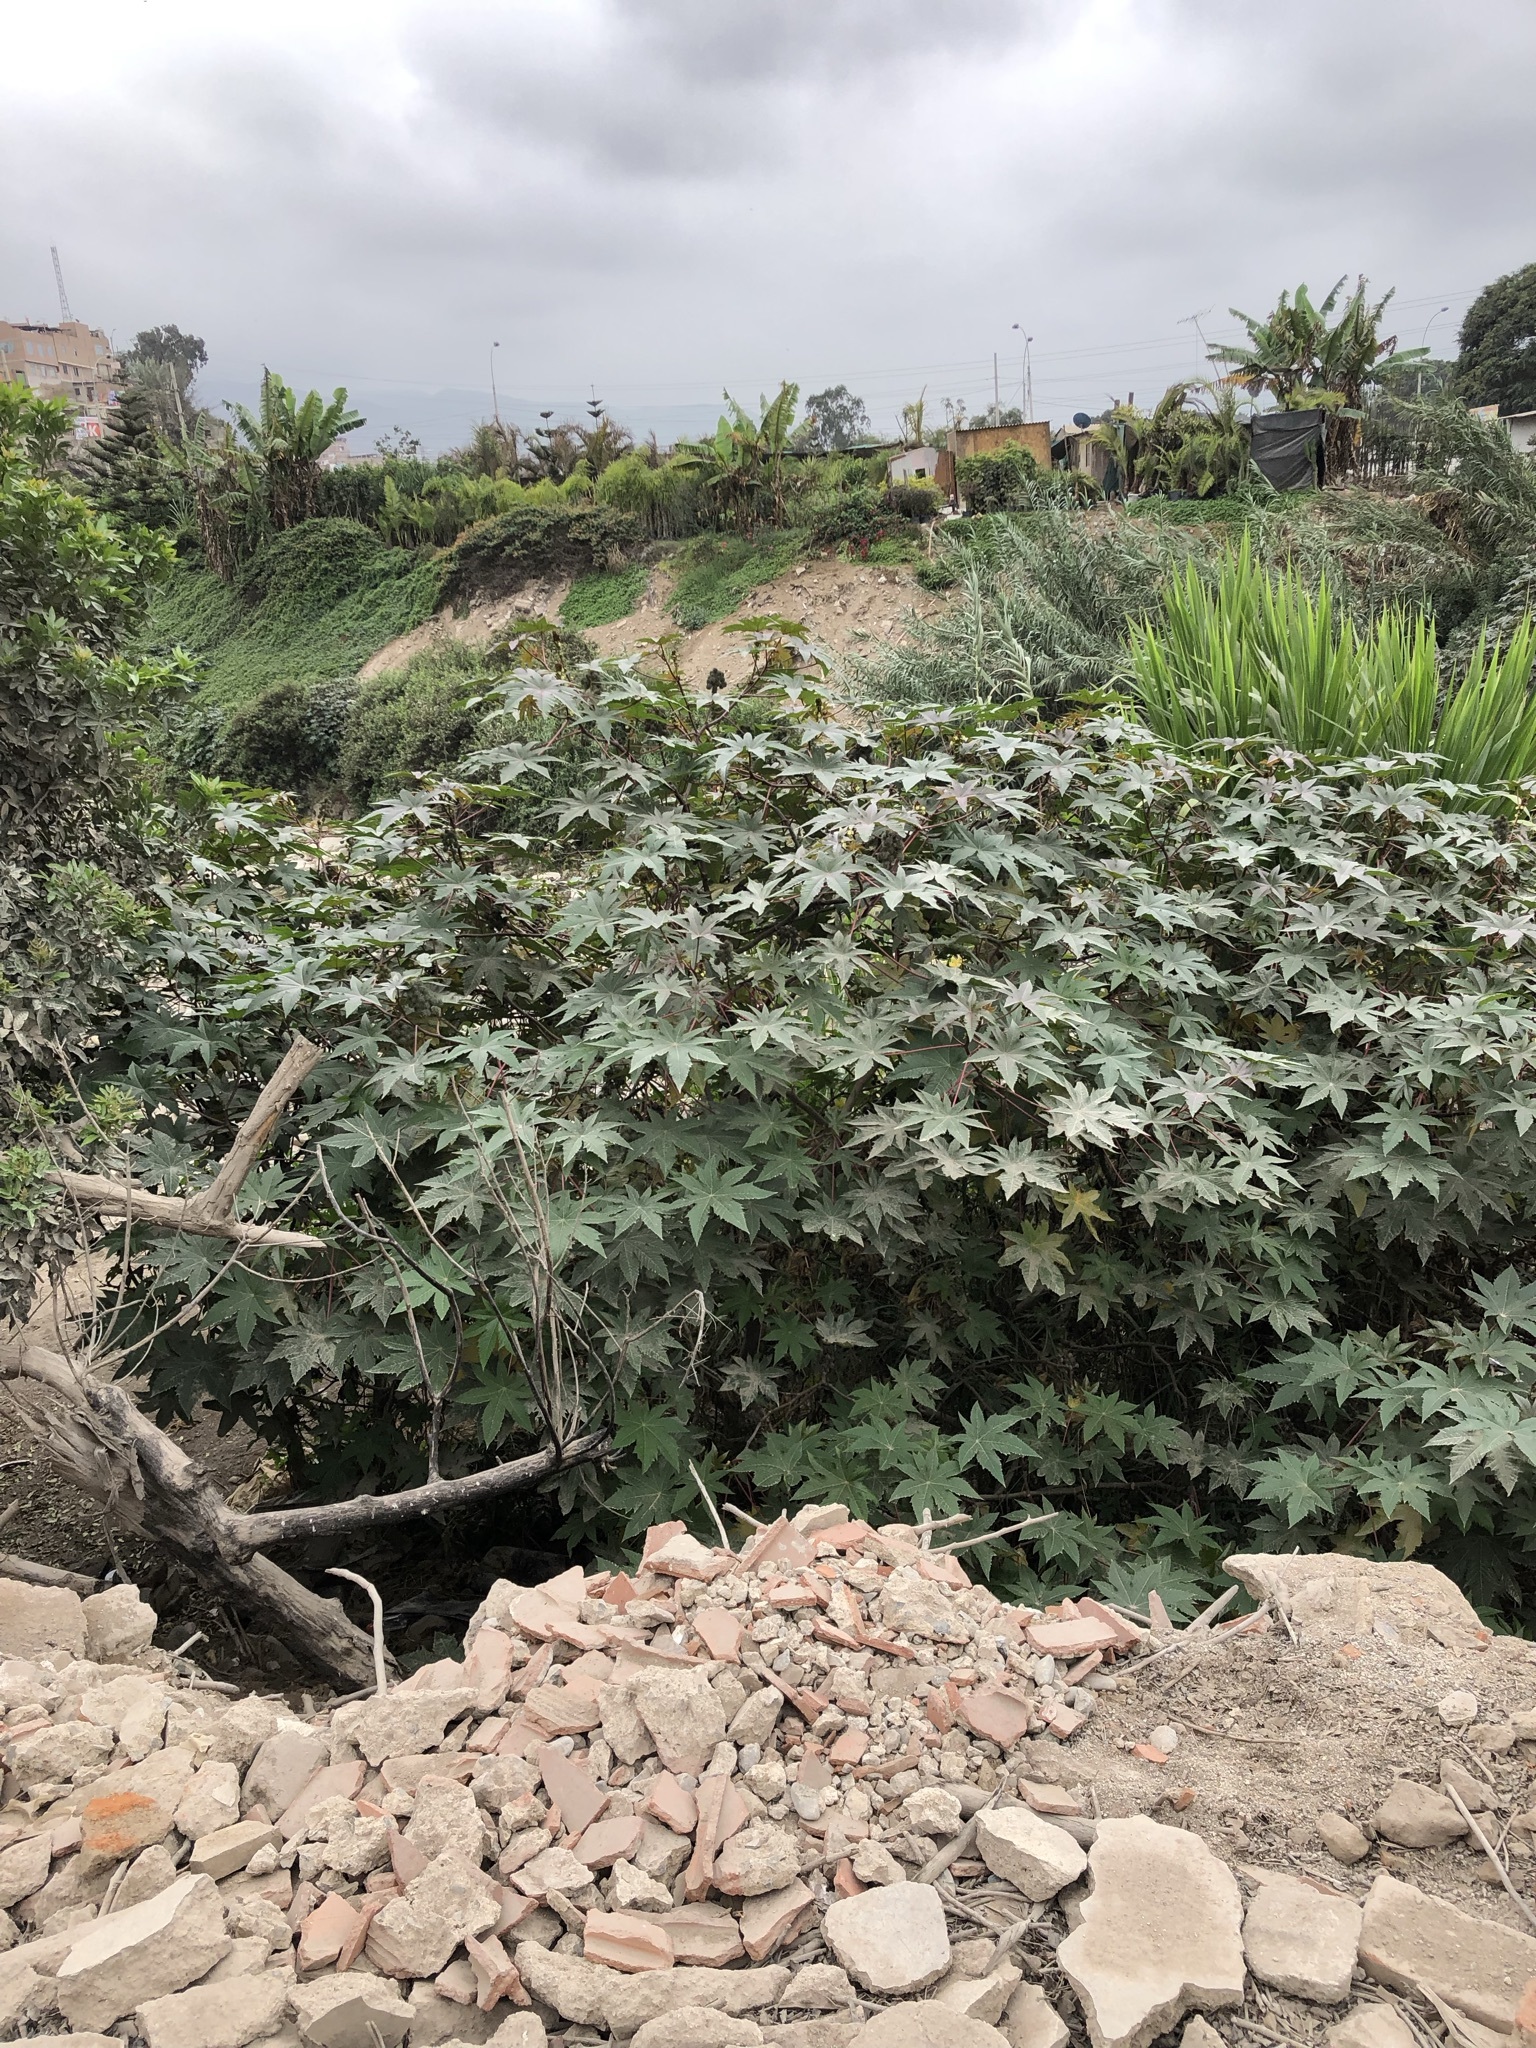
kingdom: Plantae
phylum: Tracheophyta
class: Magnoliopsida
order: Malpighiales
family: Euphorbiaceae
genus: Ricinus
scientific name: Ricinus communis
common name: Castor-oil-plant
